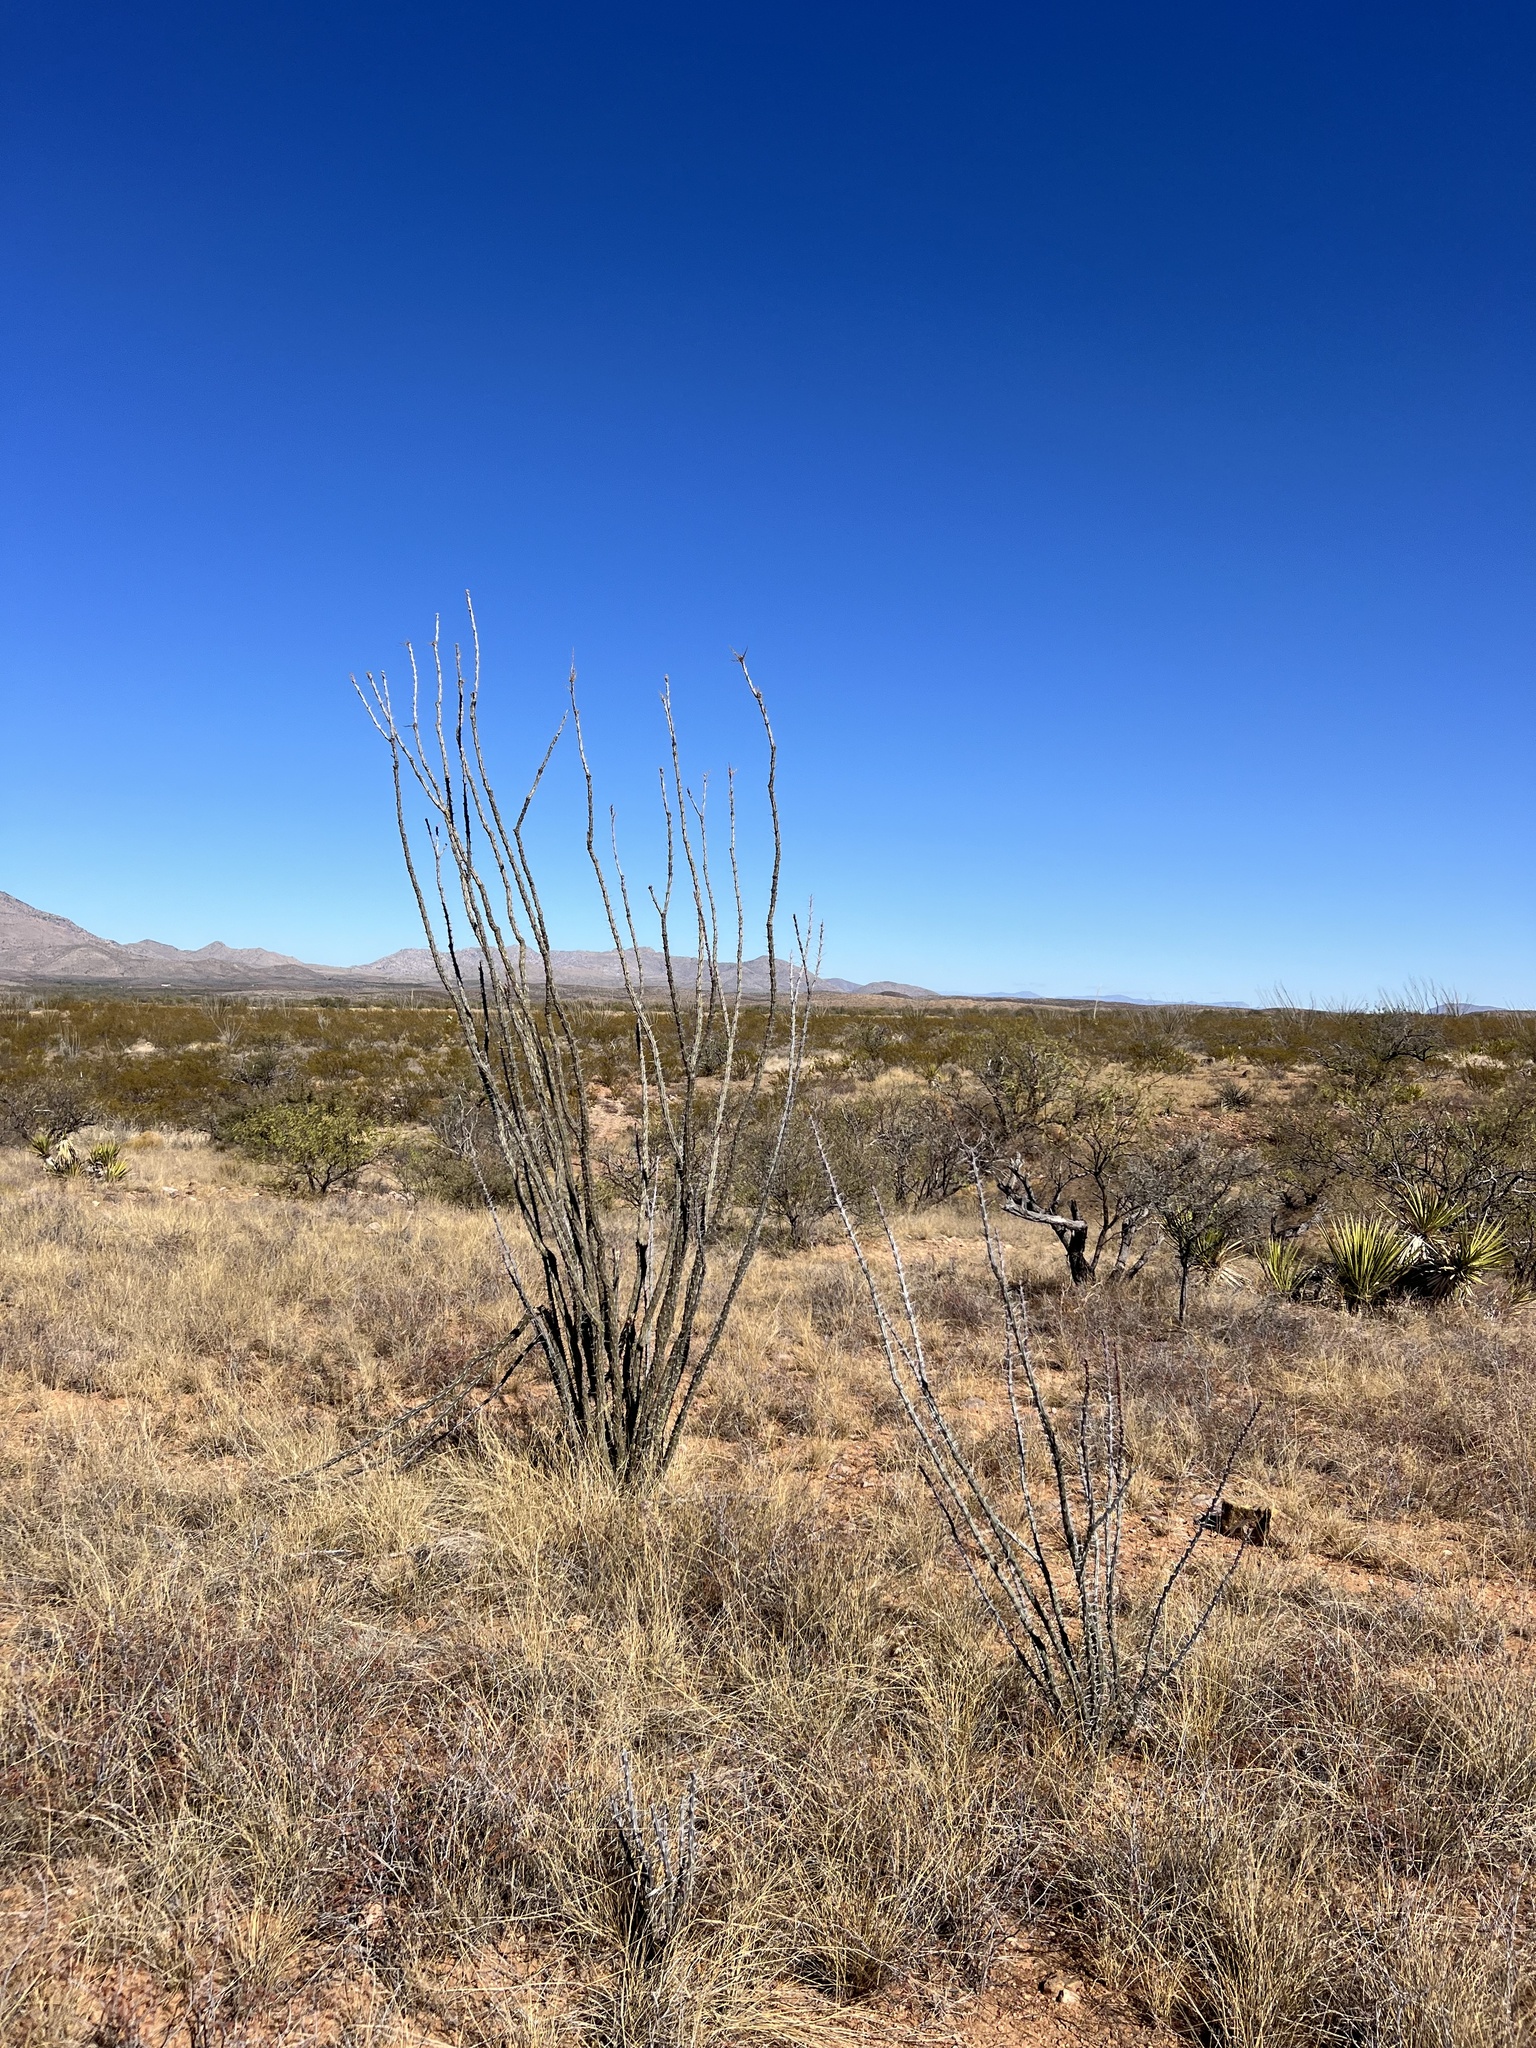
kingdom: Plantae
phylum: Tracheophyta
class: Magnoliopsida
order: Ericales
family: Fouquieriaceae
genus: Fouquieria
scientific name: Fouquieria splendens
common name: Vine-cactus
